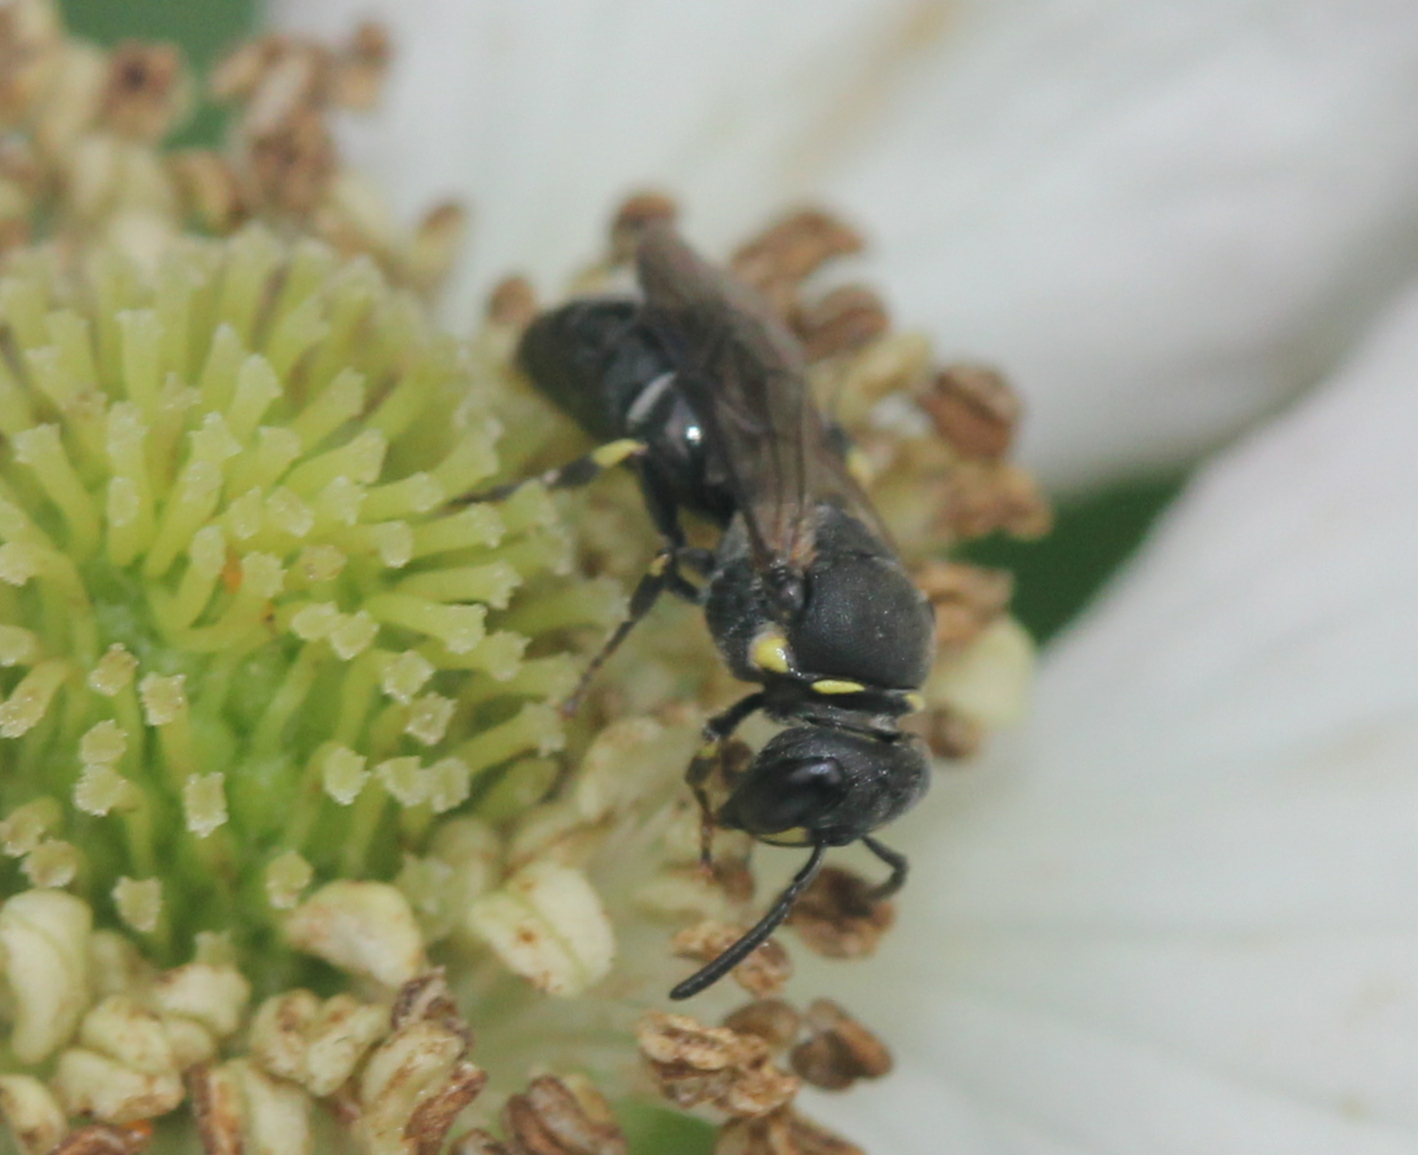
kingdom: Animalia
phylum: Arthropoda
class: Insecta
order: Hymenoptera
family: Colletidae
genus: Hylaeus
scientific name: Hylaeus modestus
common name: Yellow-faced bee
